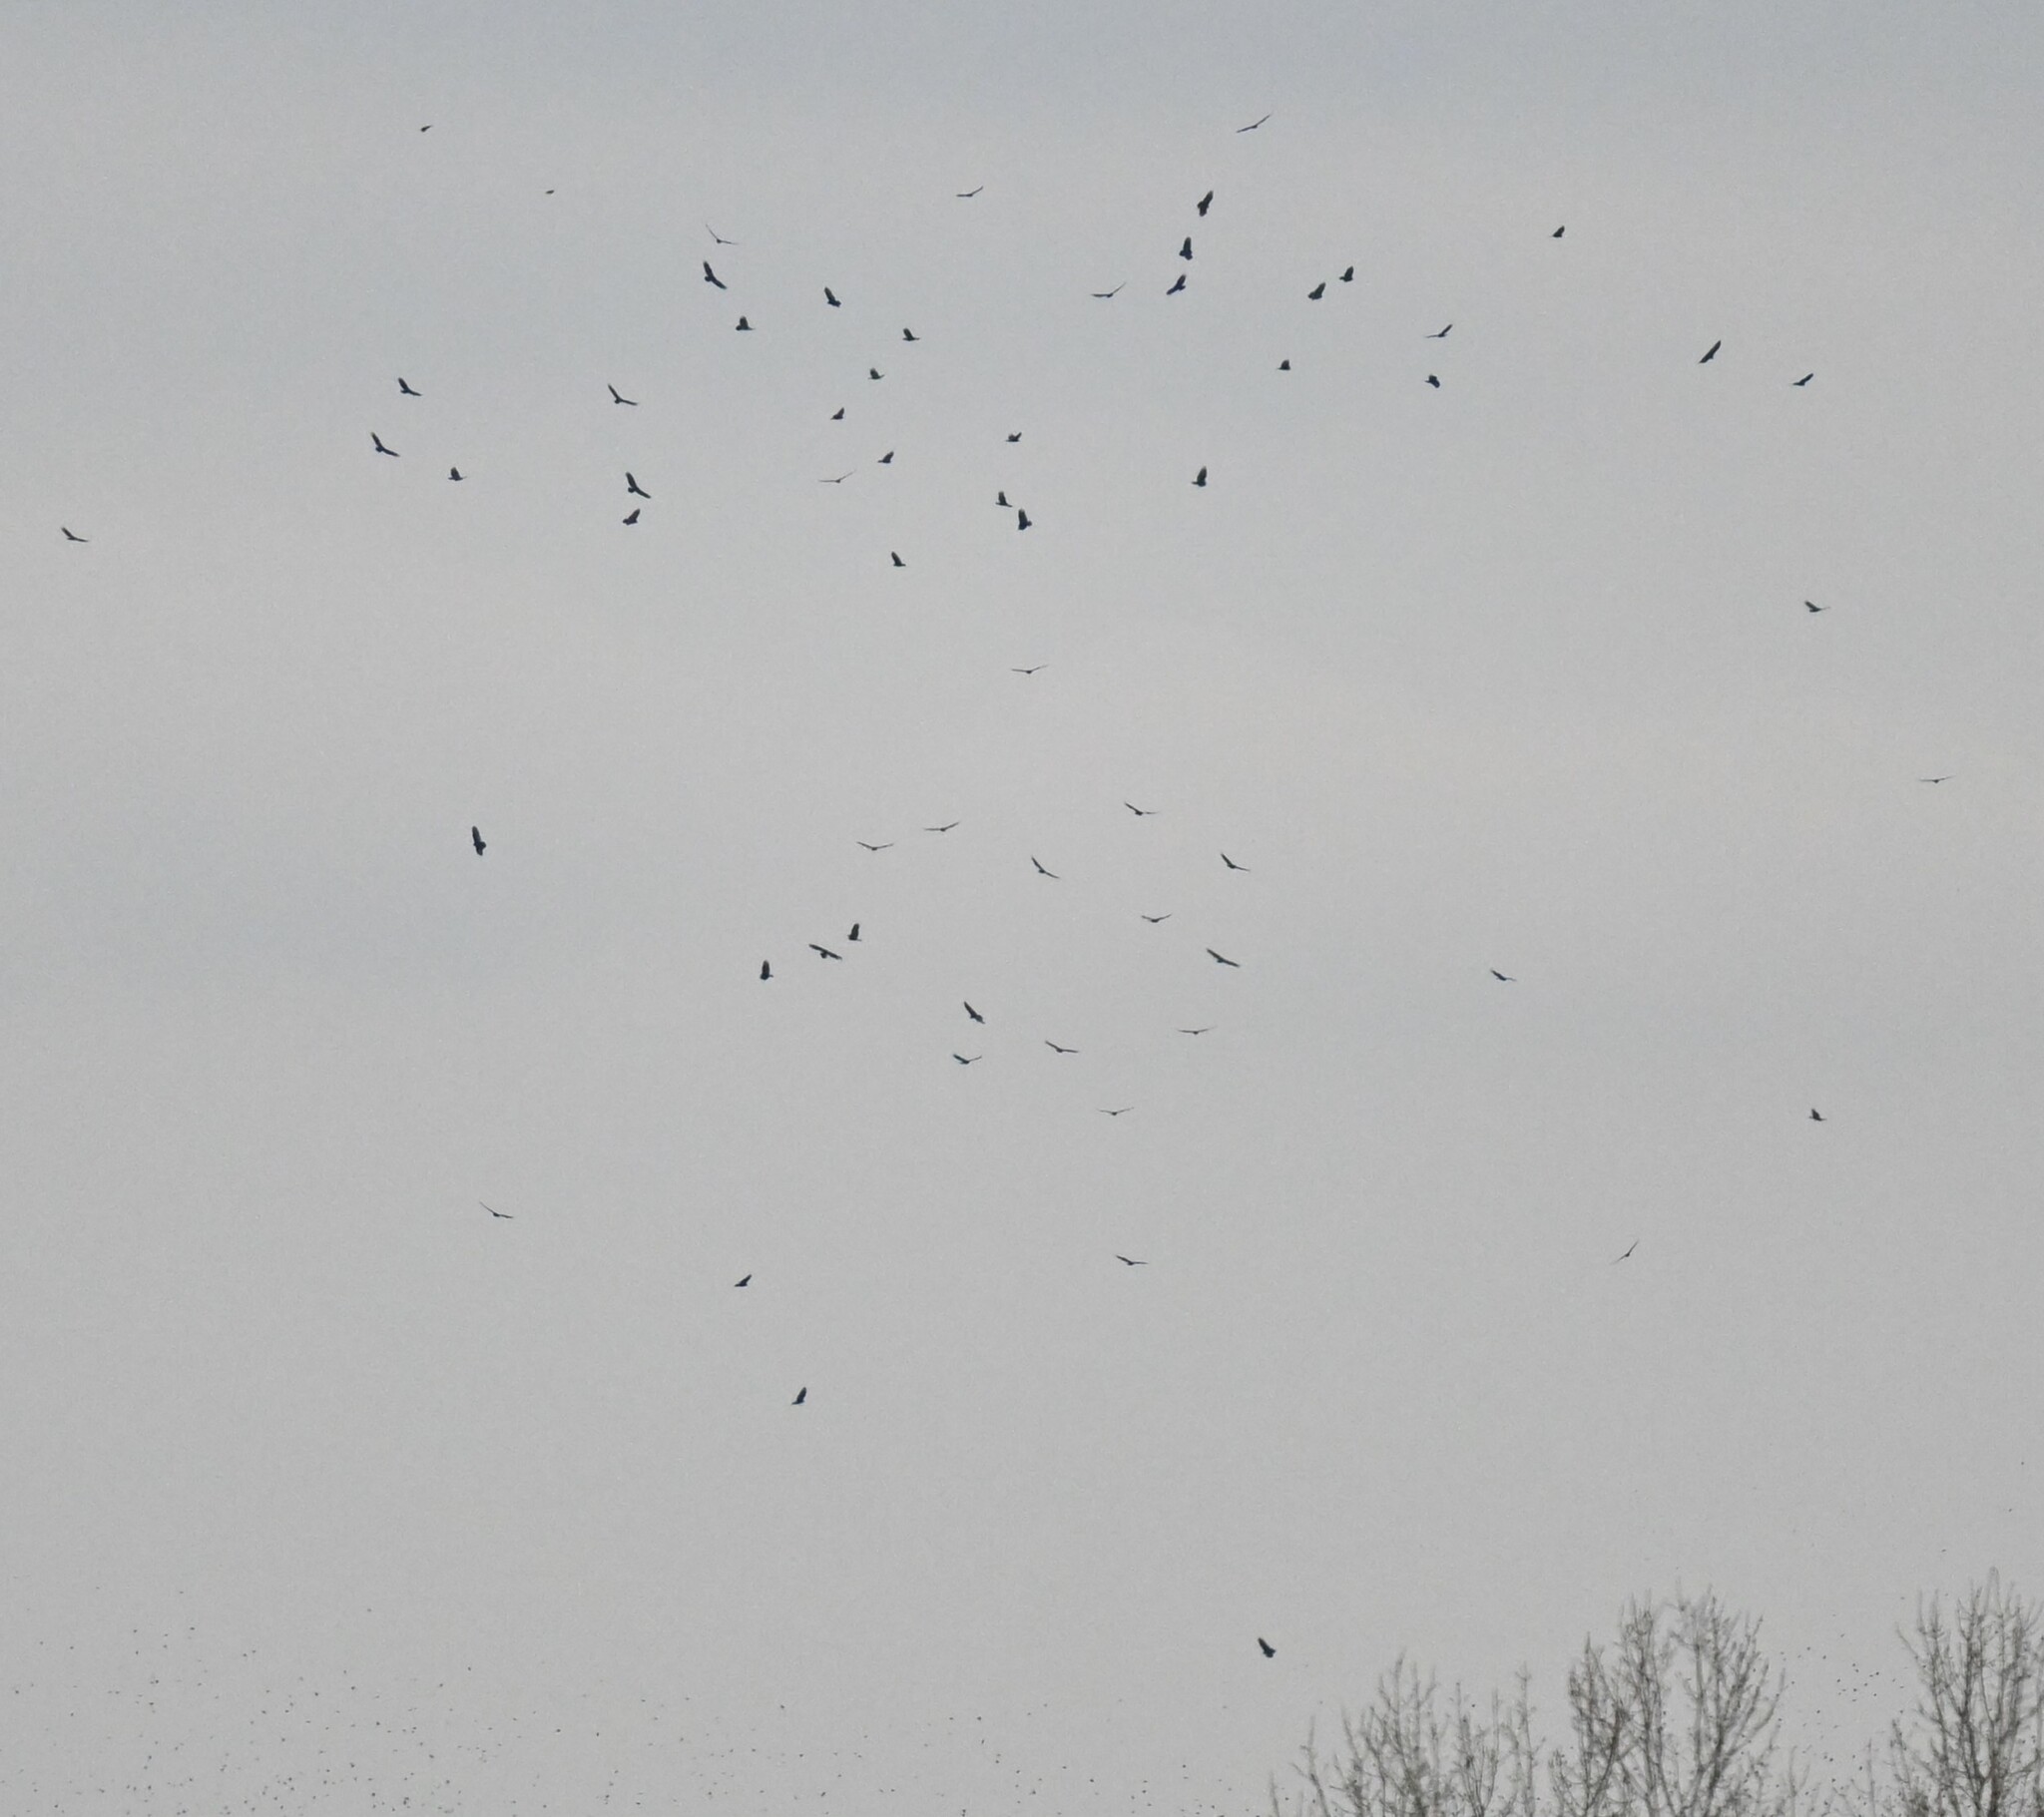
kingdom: Animalia
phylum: Chordata
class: Aves
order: Accipitriformes
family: Cathartidae
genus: Cathartes
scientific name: Cathartes aura
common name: Turkey vulture
